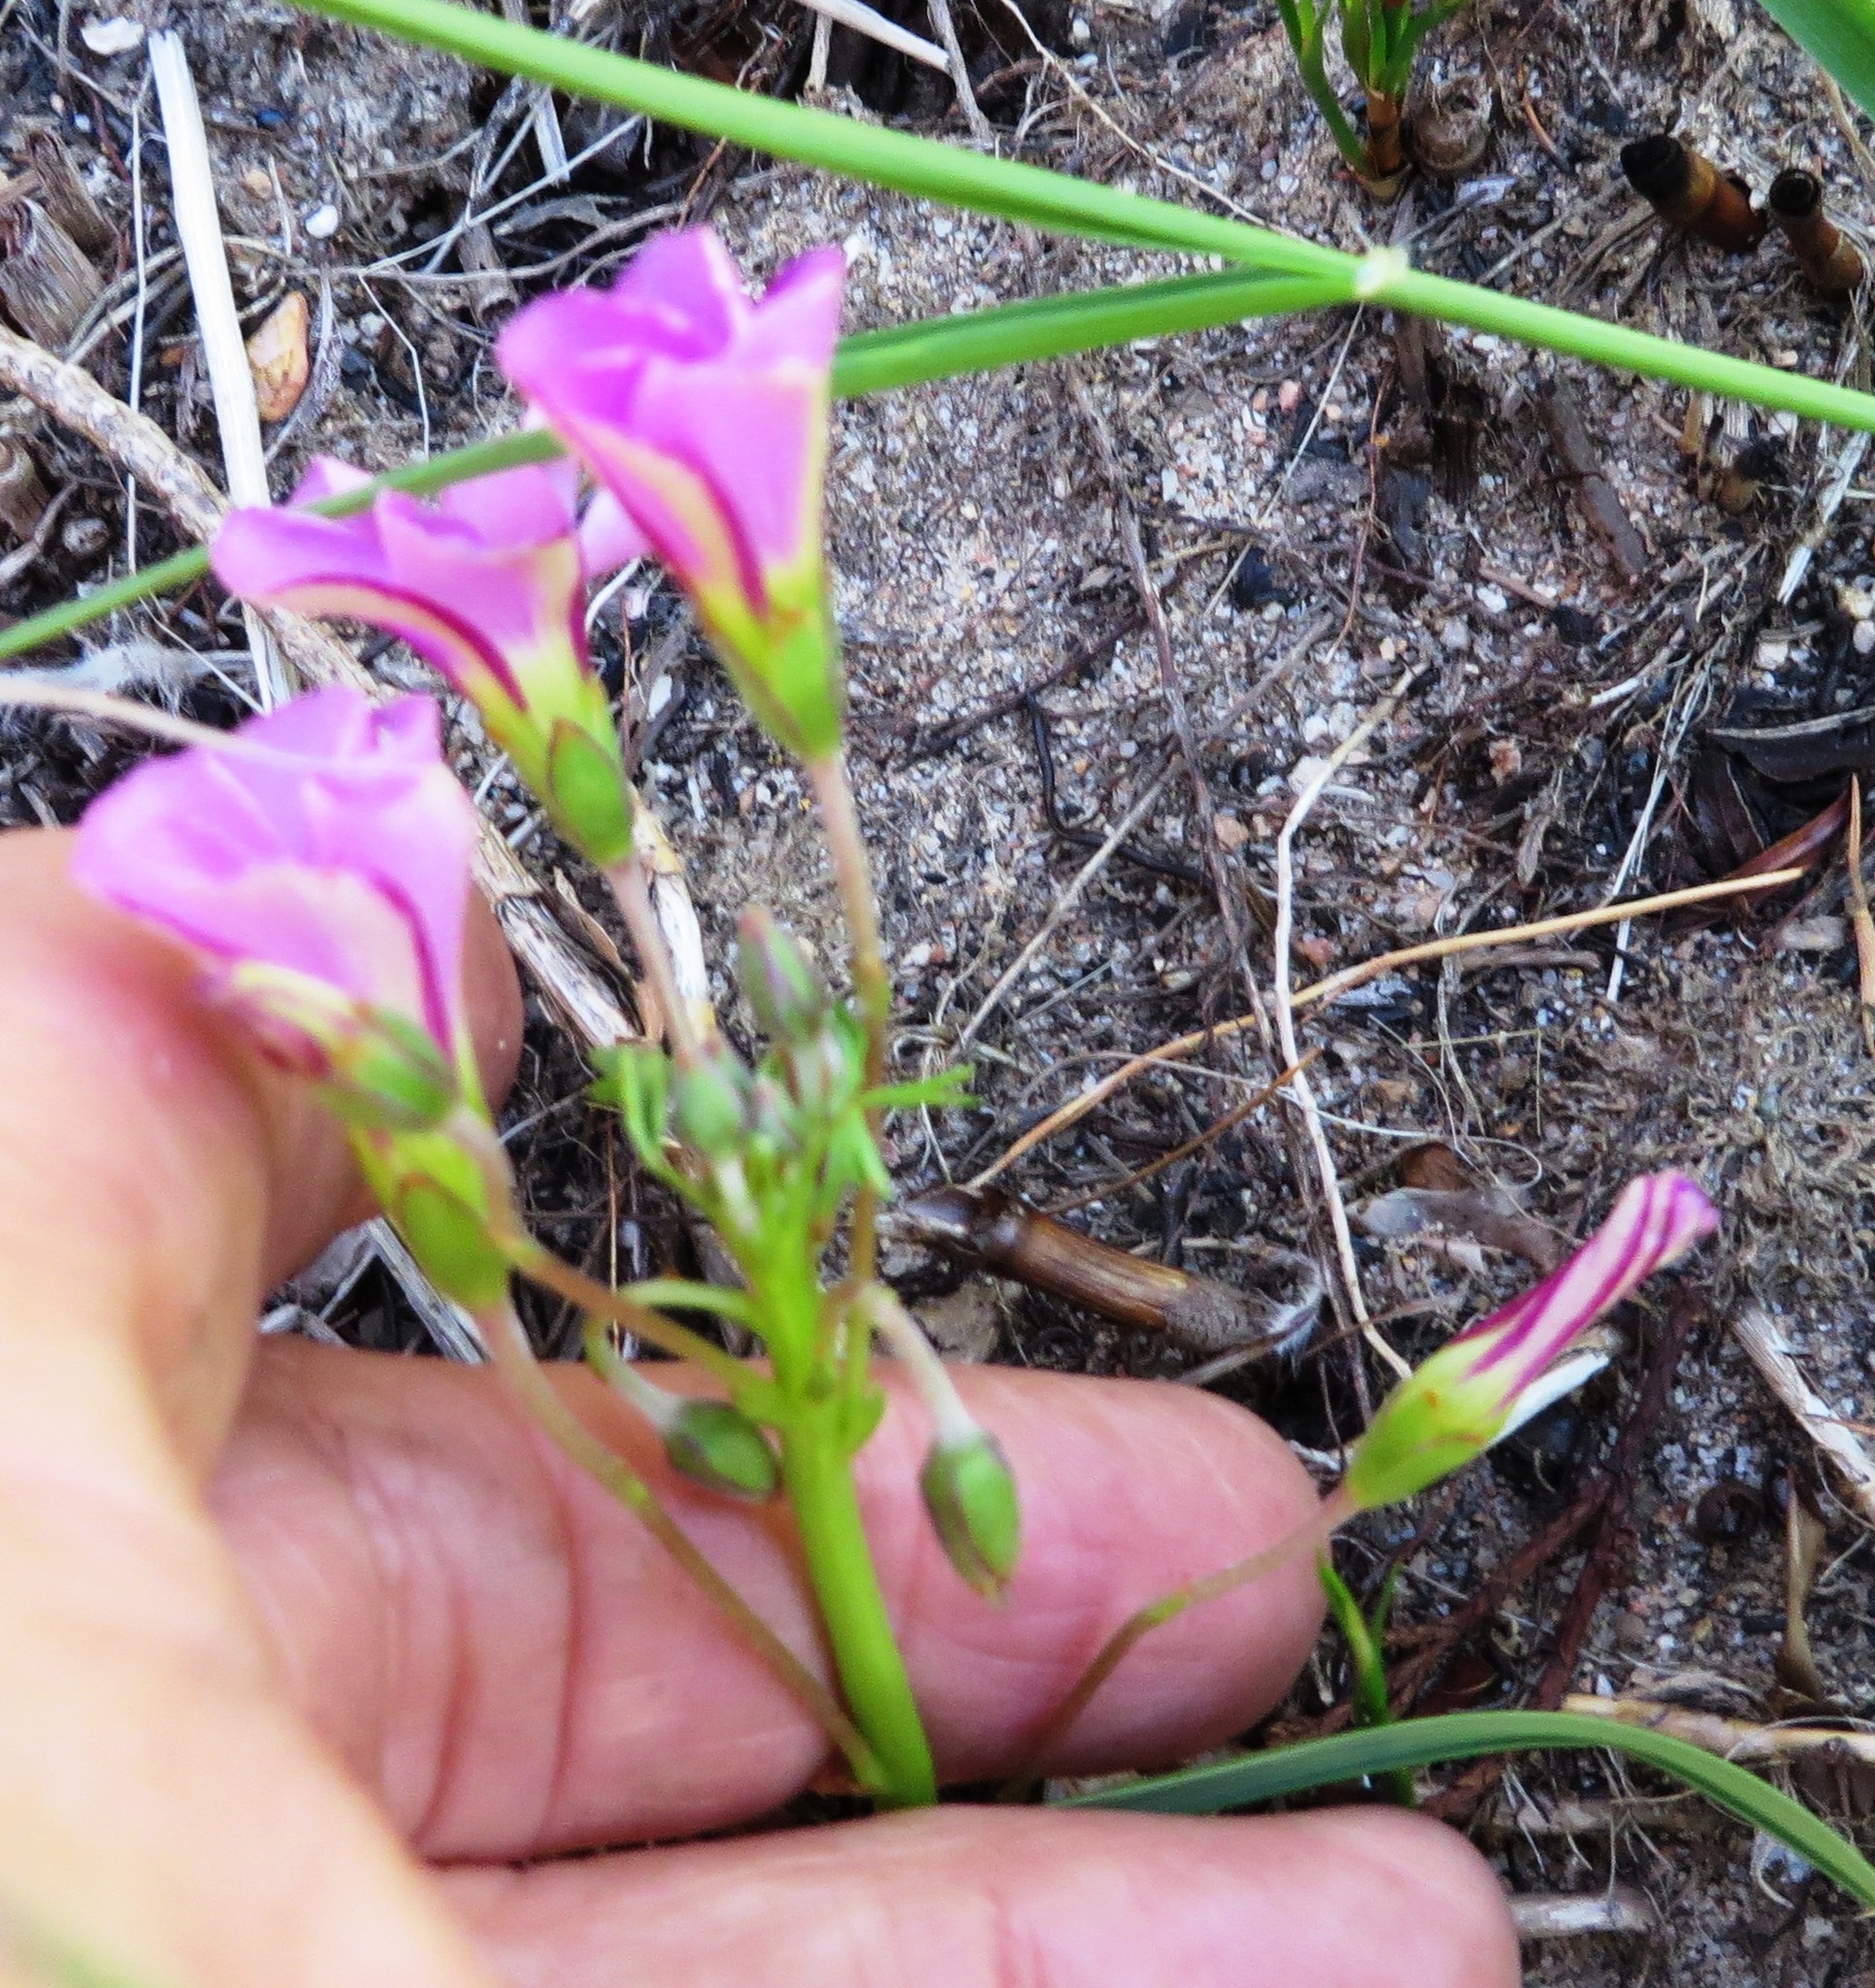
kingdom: Plantae
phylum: Tracheophyta
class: Magnoliopsida
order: Oxalidales
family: Oxalidaceae
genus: Oxalis
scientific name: Oxalis bifida
